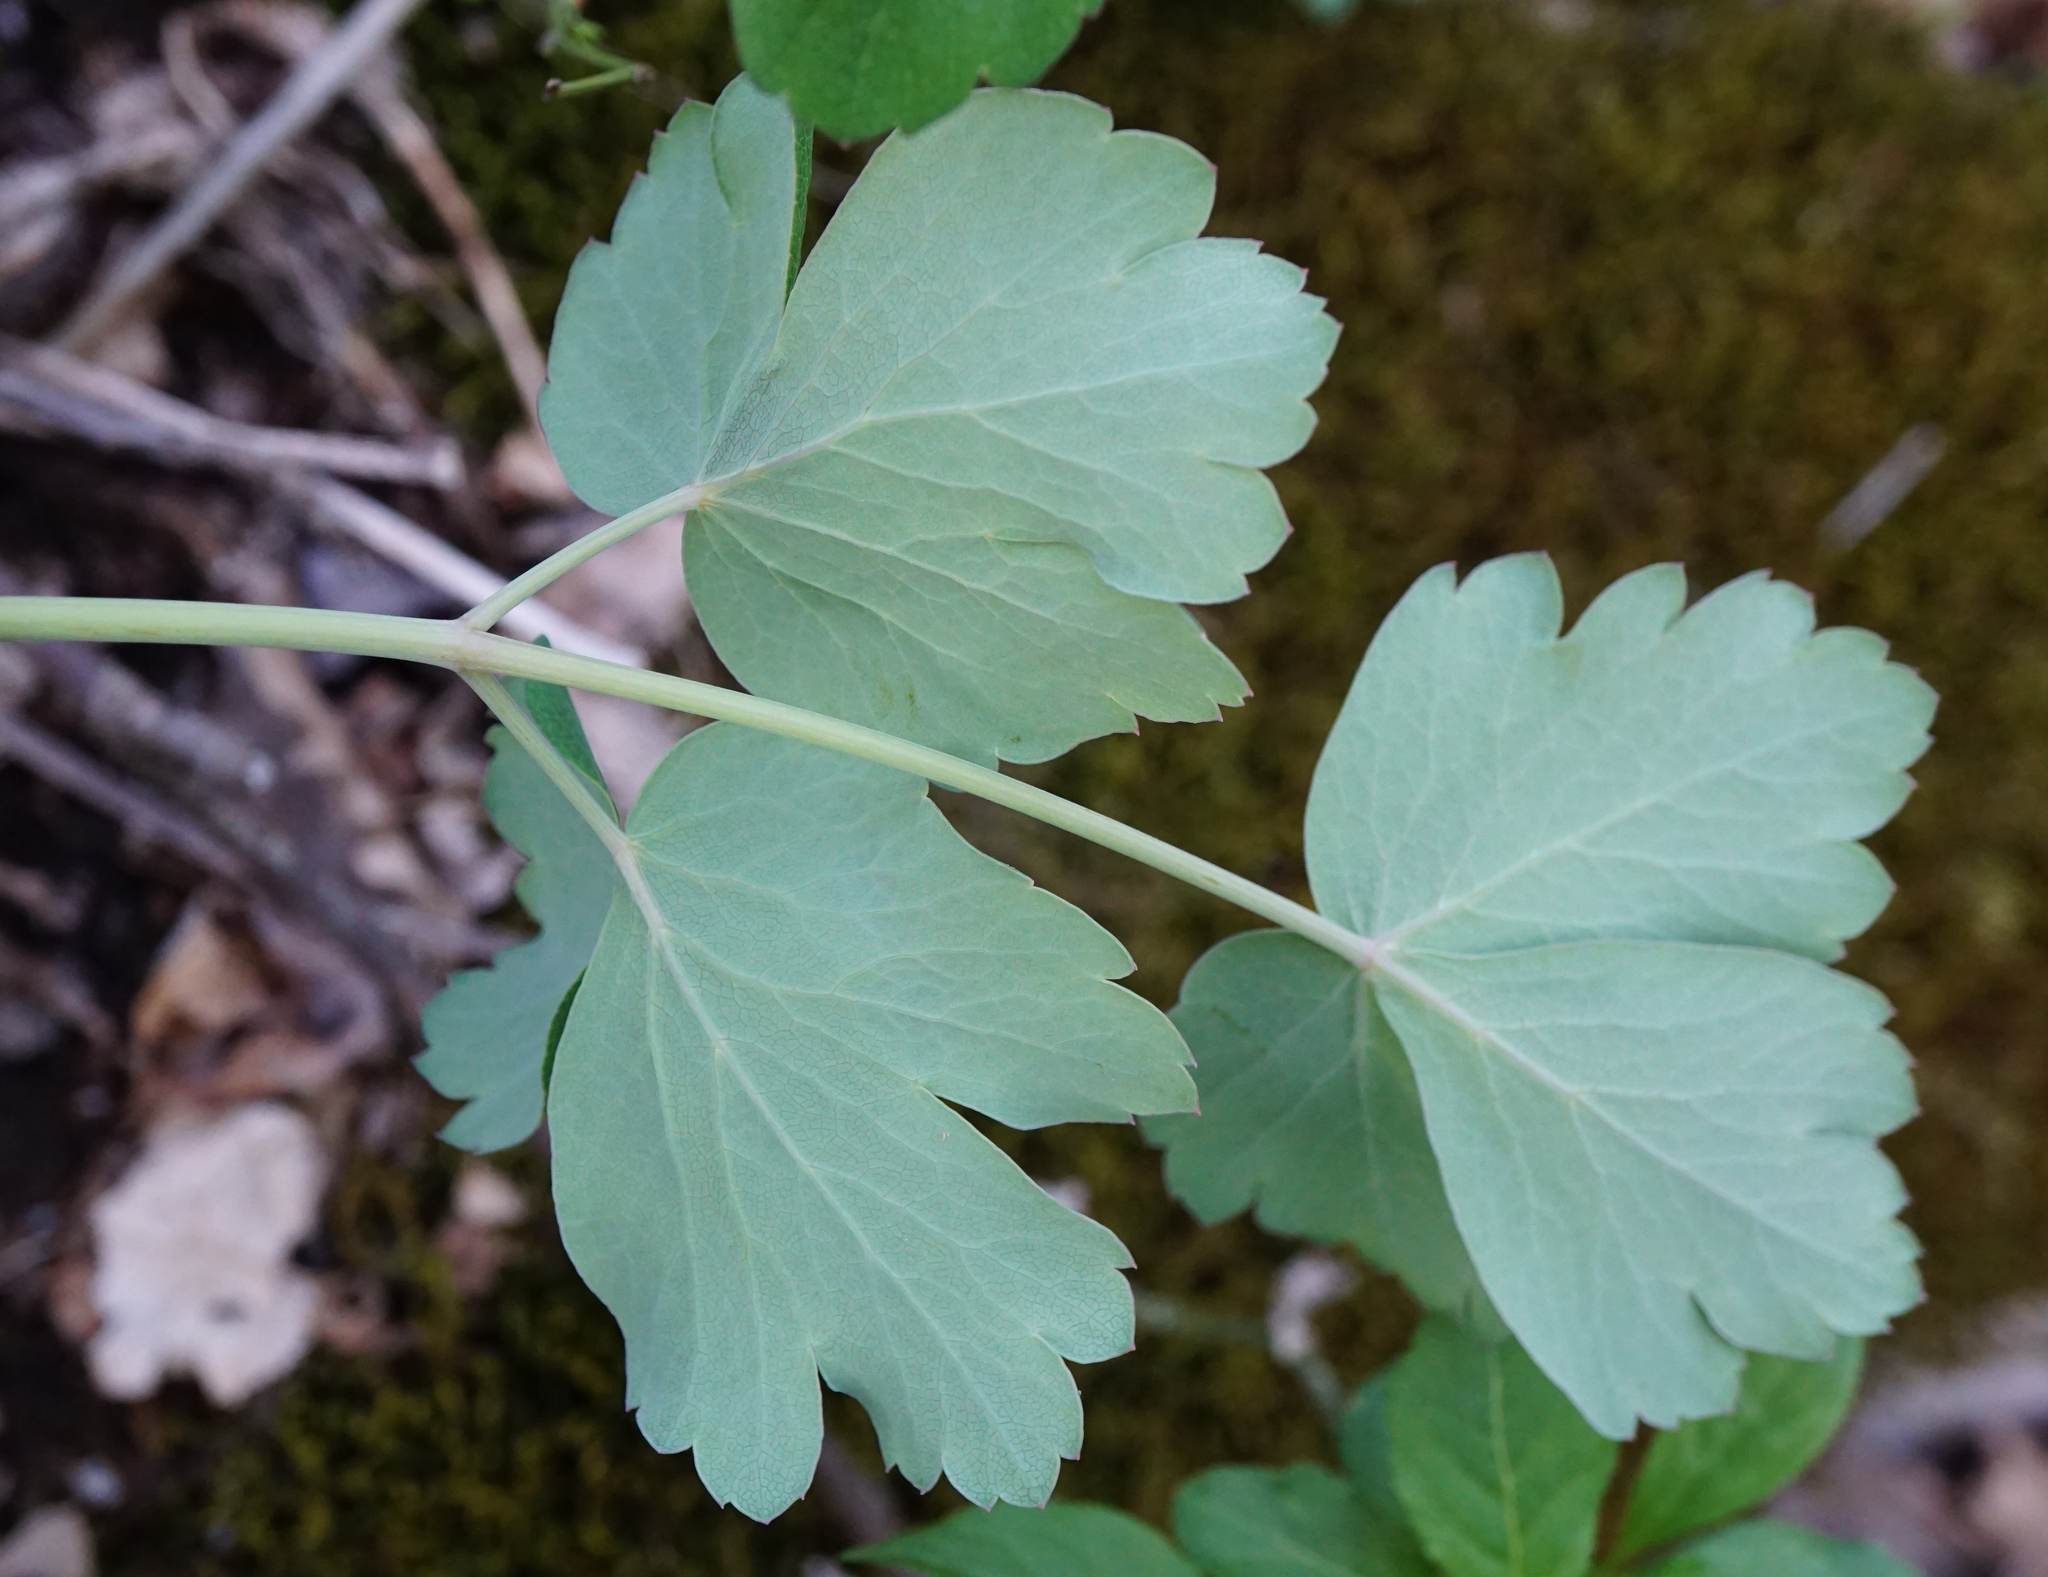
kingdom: Plantae
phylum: Tracheophyta
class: Magnoliopsida
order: Apiales
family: Apiaceae
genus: Laser
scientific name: Laser trilobum
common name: Laser
